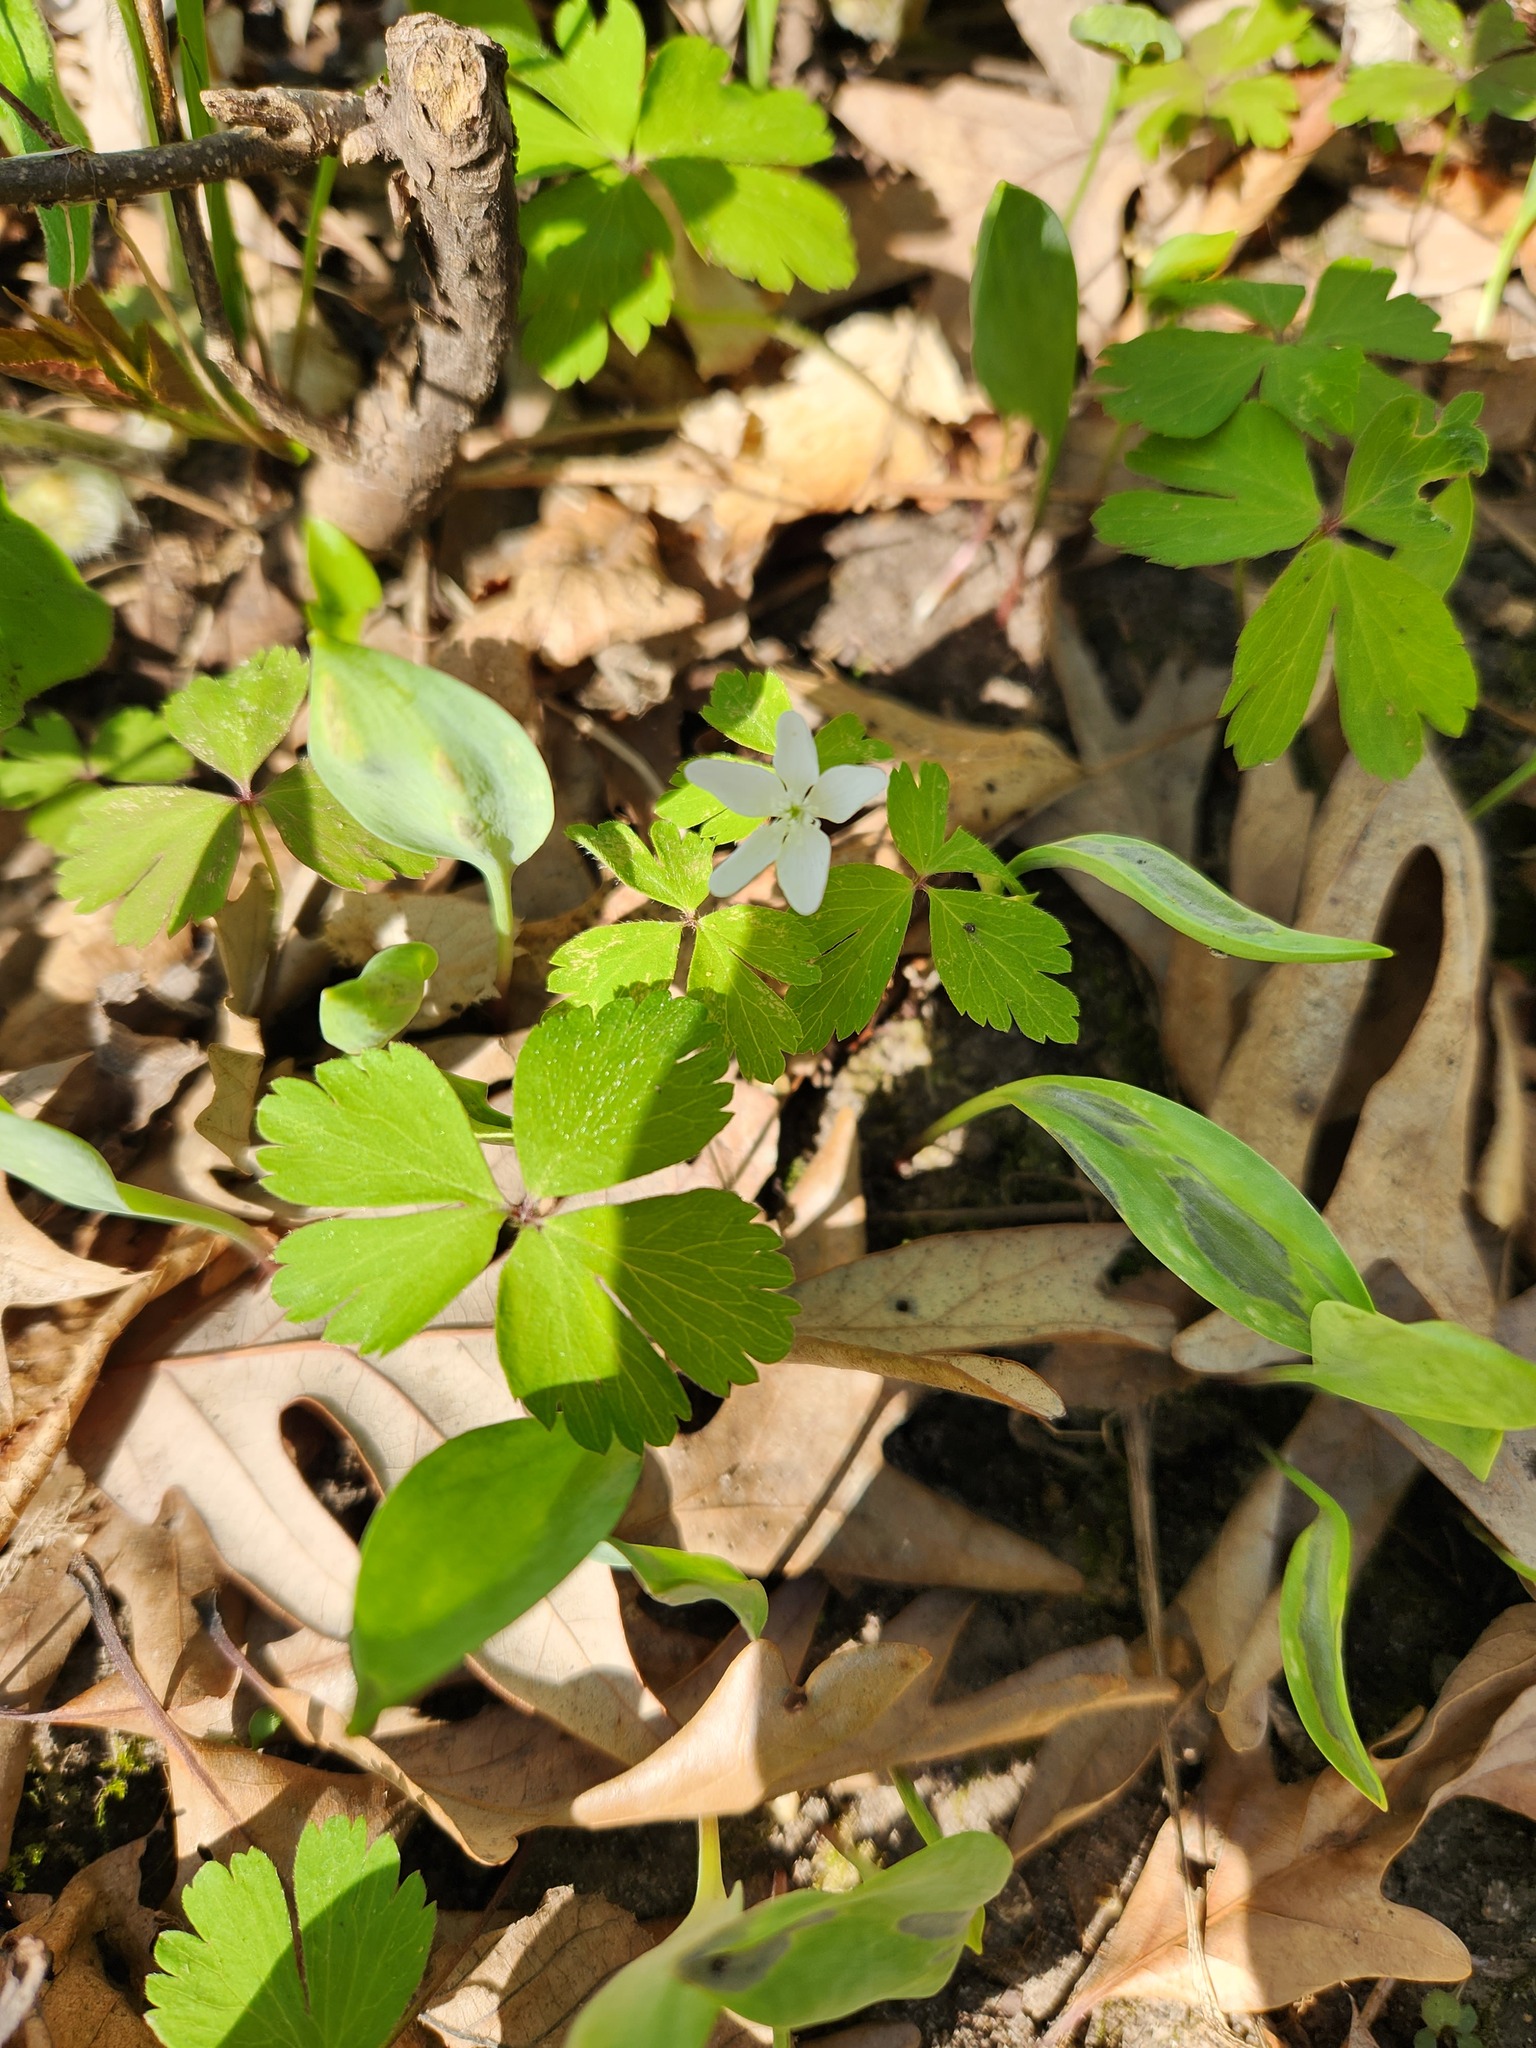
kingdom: Plantae
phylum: Tracheophyta
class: Magnoliopsida
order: Ranunculales
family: Ranunculaceae
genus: Anemone
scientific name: Anemone quinquefolia
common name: Wood anemone
